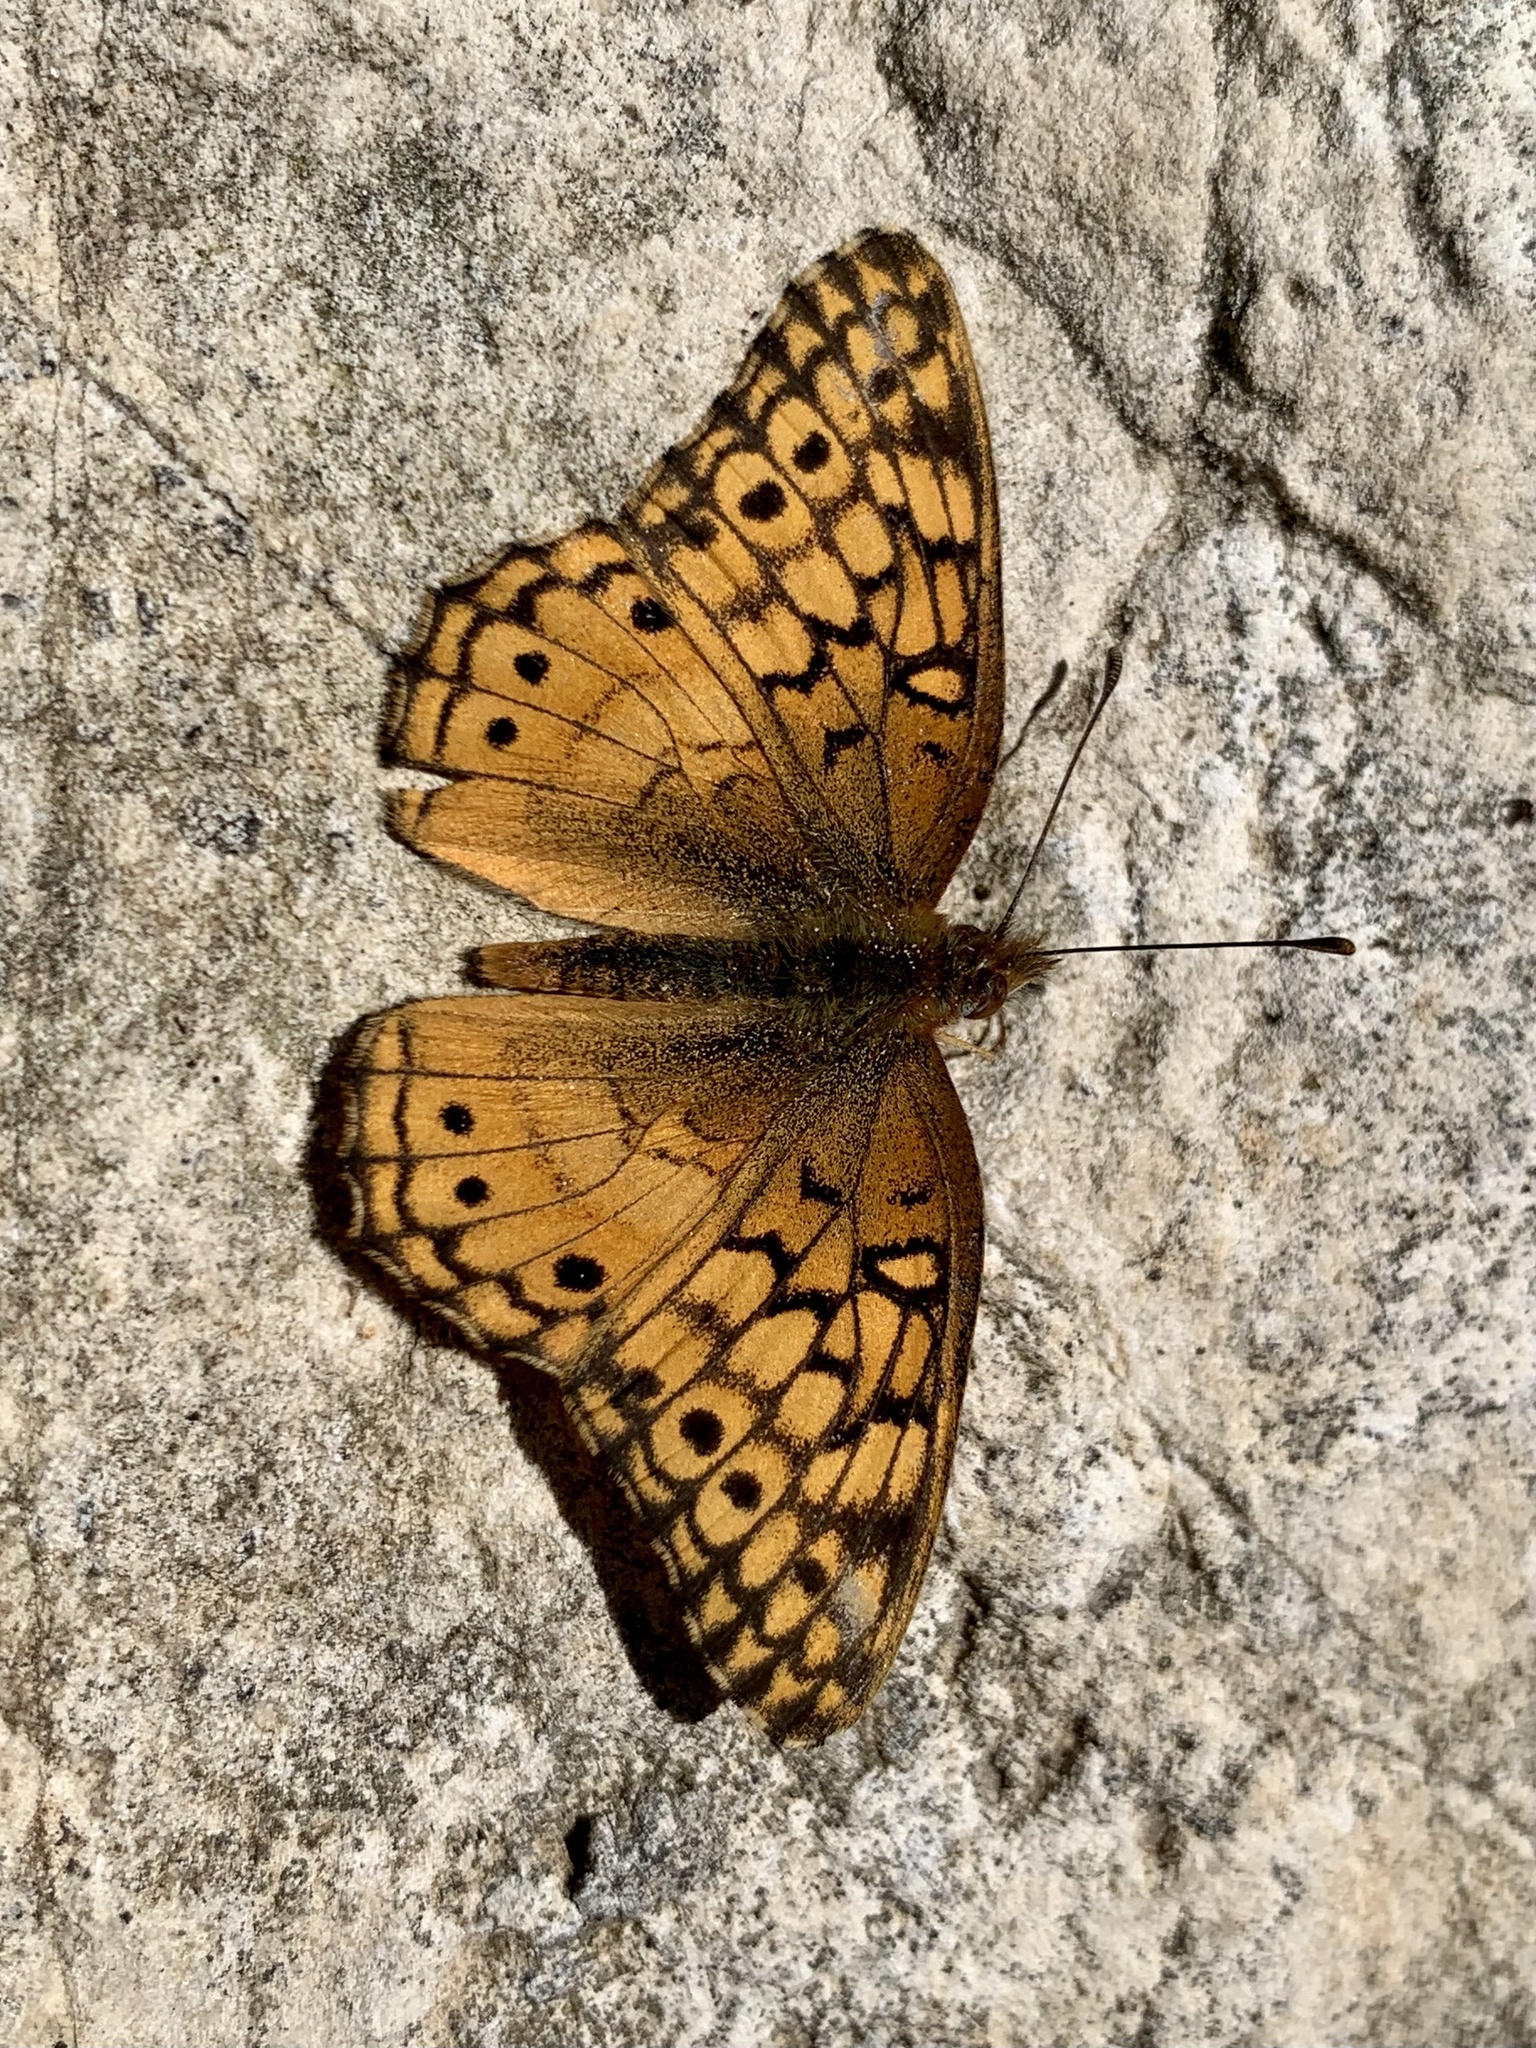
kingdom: Animalia
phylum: Arthropoda
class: Insecta
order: Lepidoptera
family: Nymphalidae
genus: Euptoieta
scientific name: Euptoieta claudia
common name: Variegated fritillary
